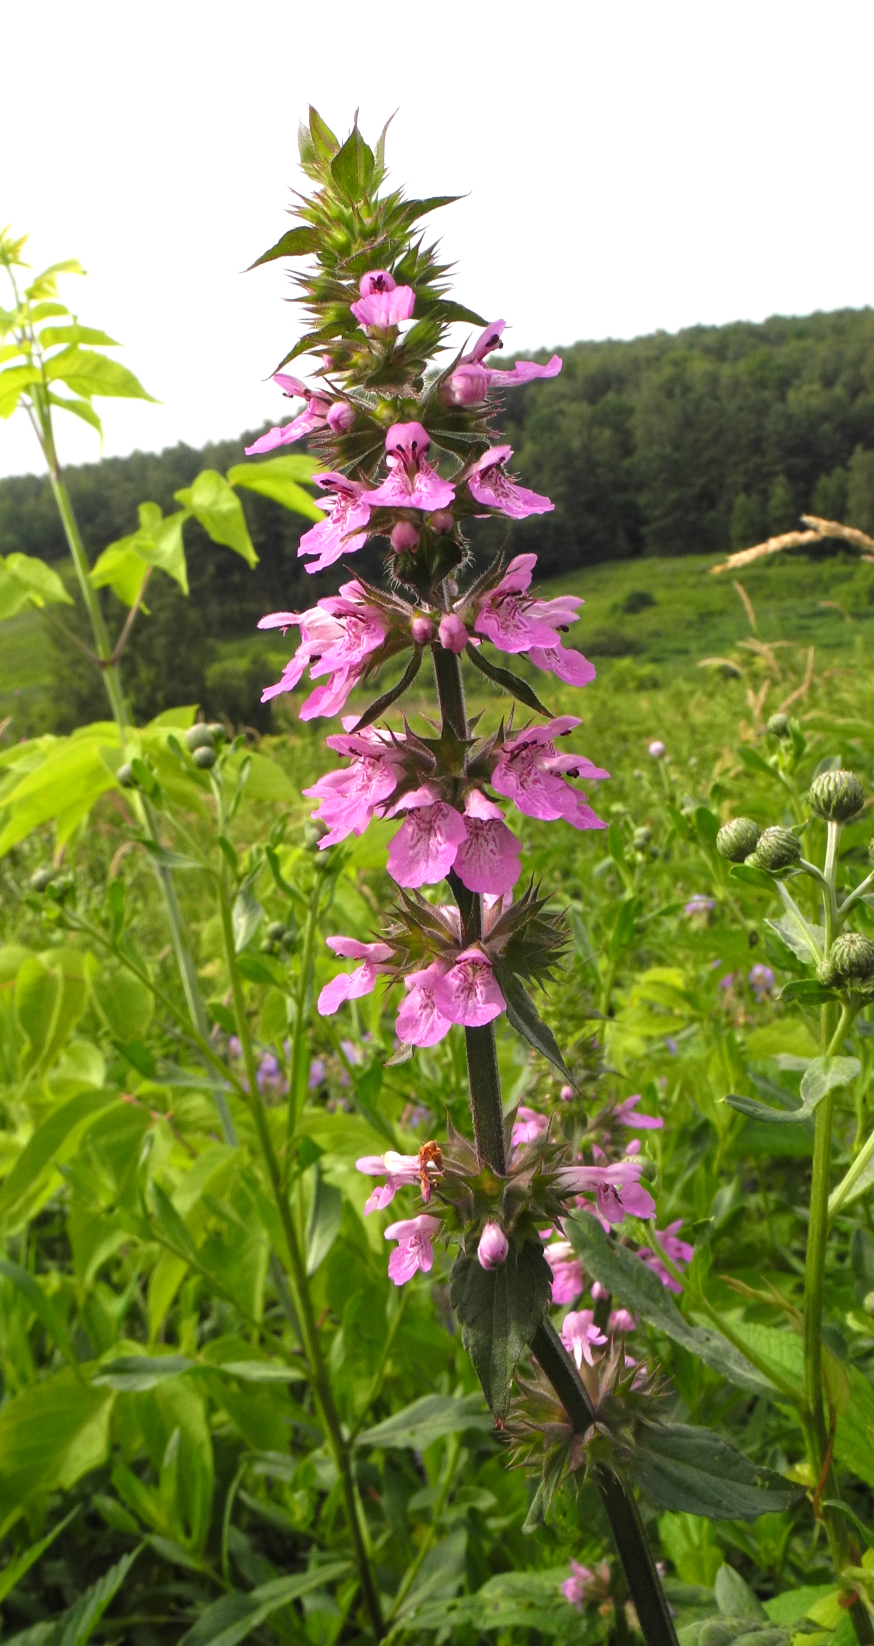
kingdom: Plantae
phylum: Tracheophyta
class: Magnoliopsida
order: Lamiales
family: Lamiaceae
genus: Stachys
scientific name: Stachys palustris
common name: Marsh woundwort
